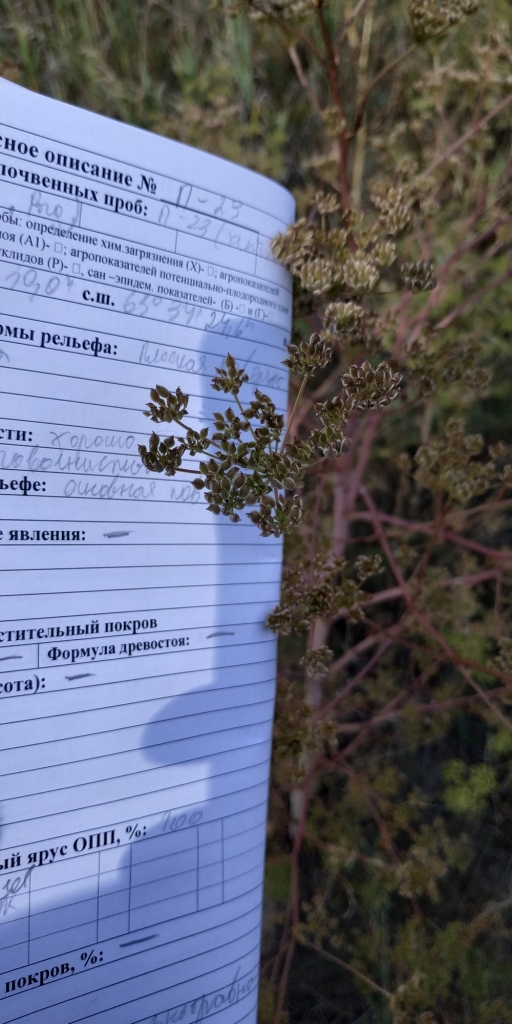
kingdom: Plantae
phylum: Tracheophyta
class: Magnoliopsida
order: Apiales
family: Apiaceae
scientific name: Apiaceae
